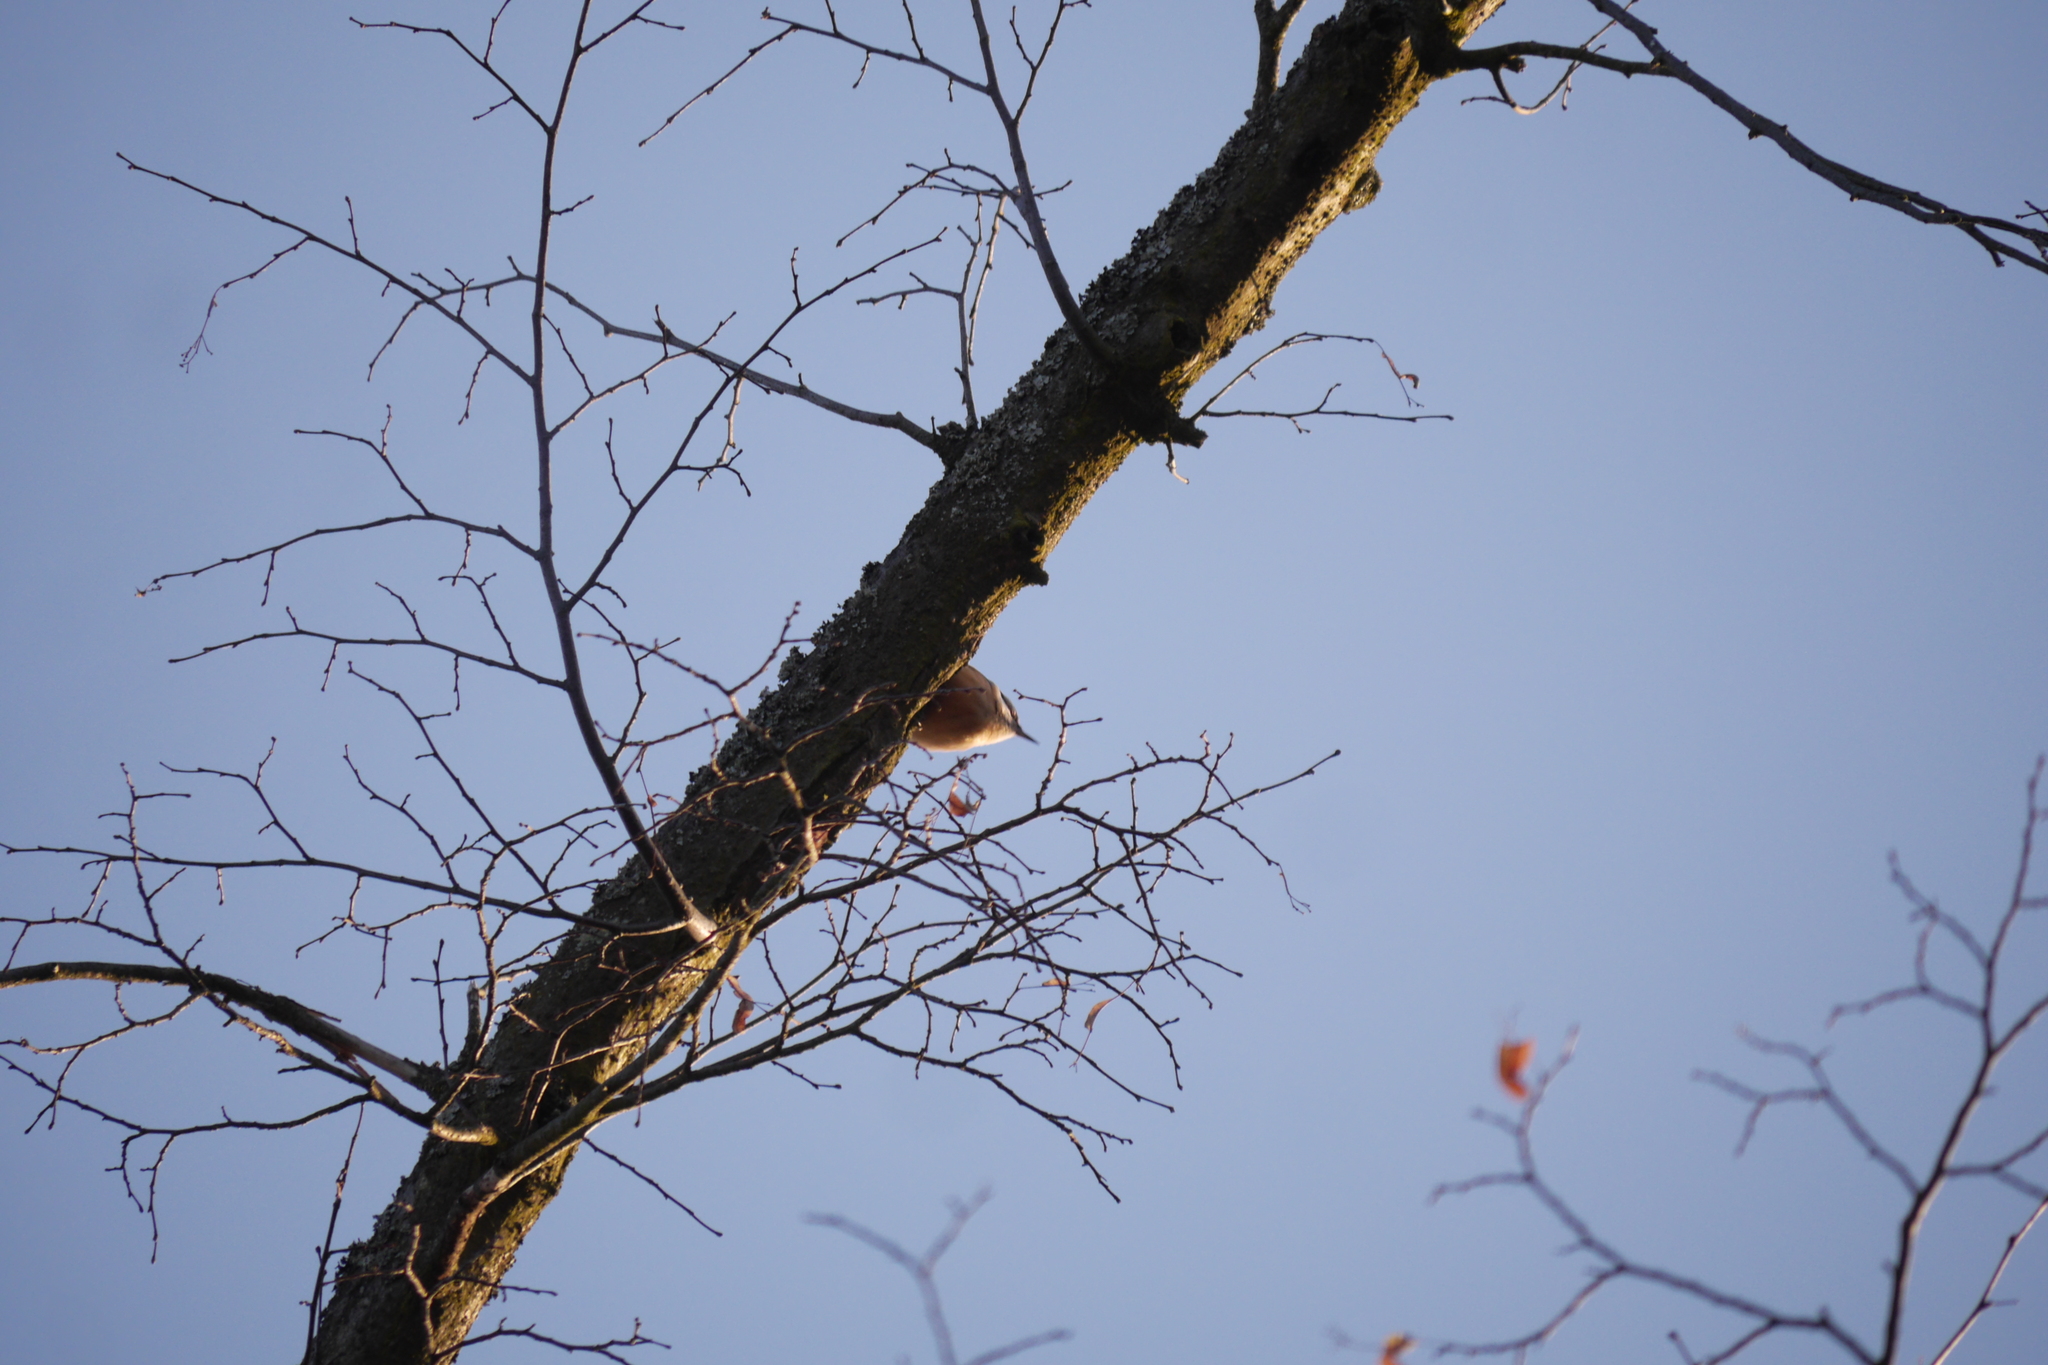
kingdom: Animalia
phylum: Chordata
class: Aves
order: Passeriformes
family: Sittidae
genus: Sitta
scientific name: Sitta europaea
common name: Eurasian nuthatch
